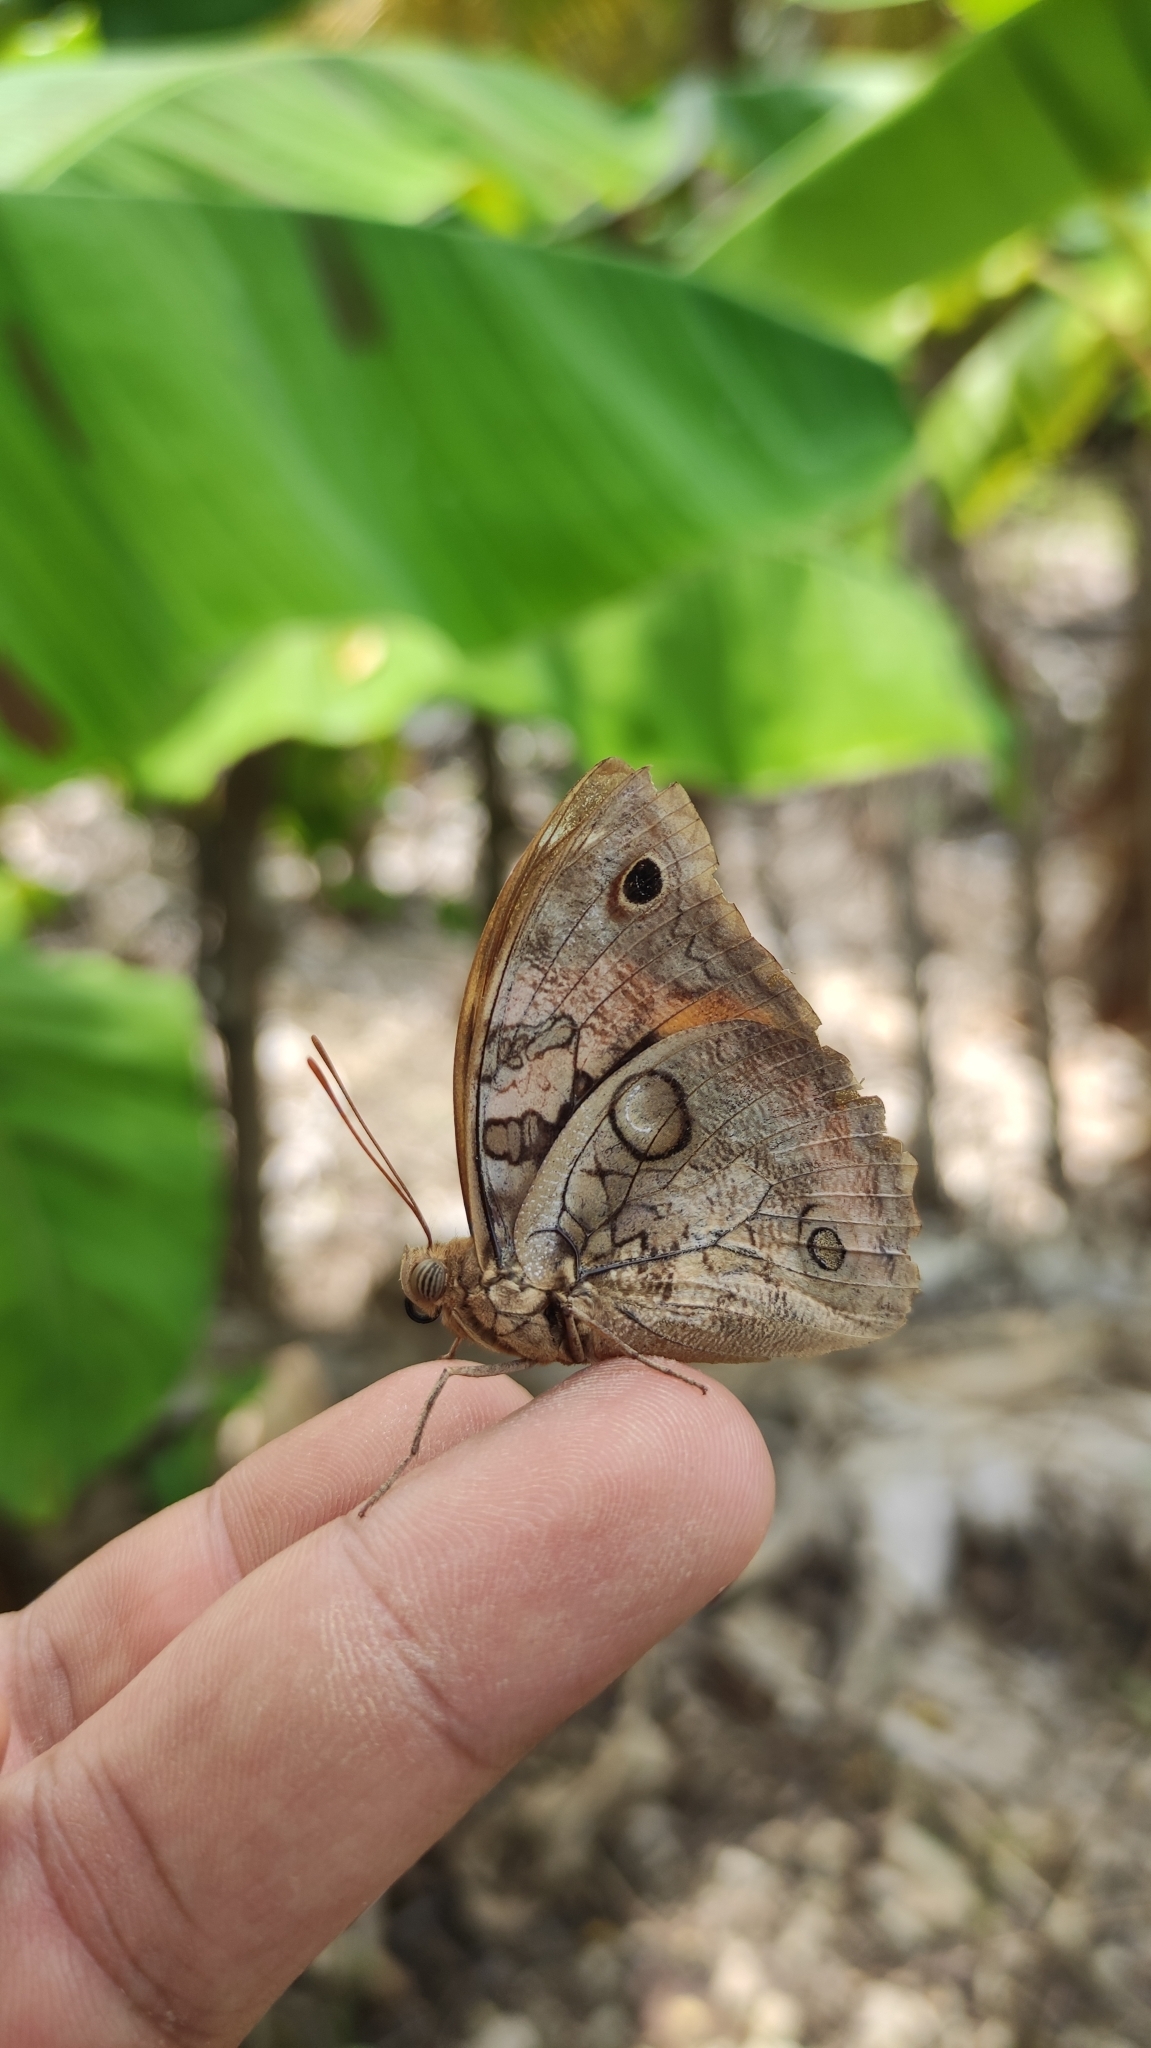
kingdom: Animalia
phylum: Arthropoda
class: Insecta
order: Lepidoptera
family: Nymphalidae
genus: Opsiphanes
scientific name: Opsiphanes cassina
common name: Split-banded owl-butterfly
